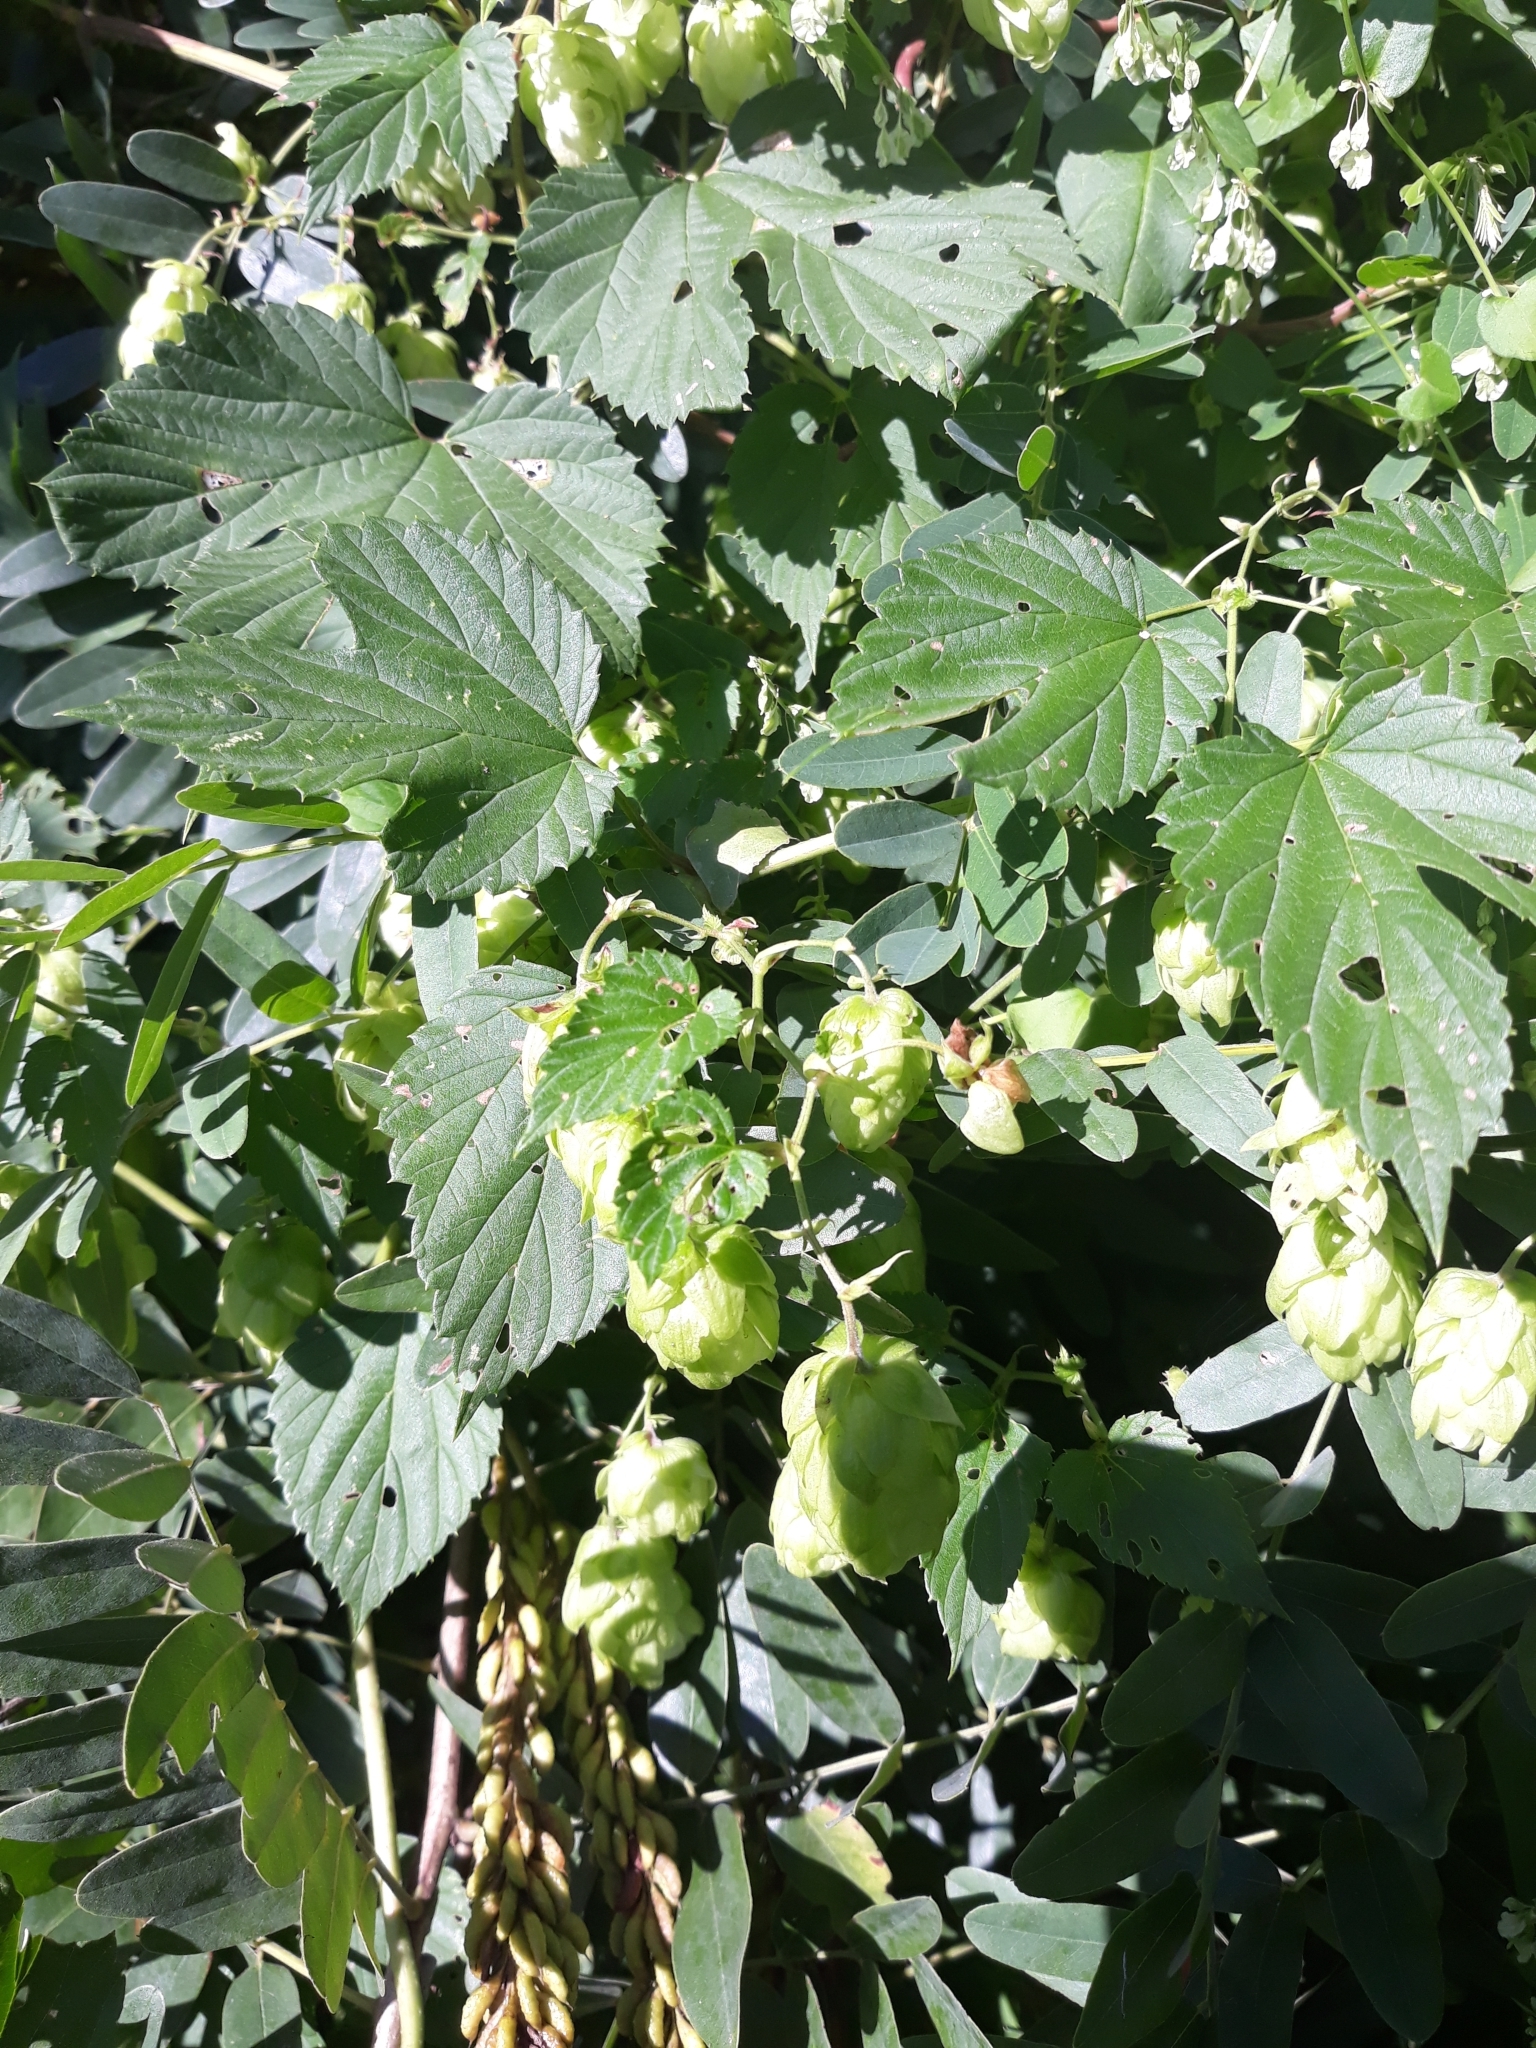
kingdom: Plantae
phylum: Tracheophyta
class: Magnoliopsida
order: Rosales
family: Cannabaceae
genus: Humulus
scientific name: Humulus lupulus
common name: Hop
